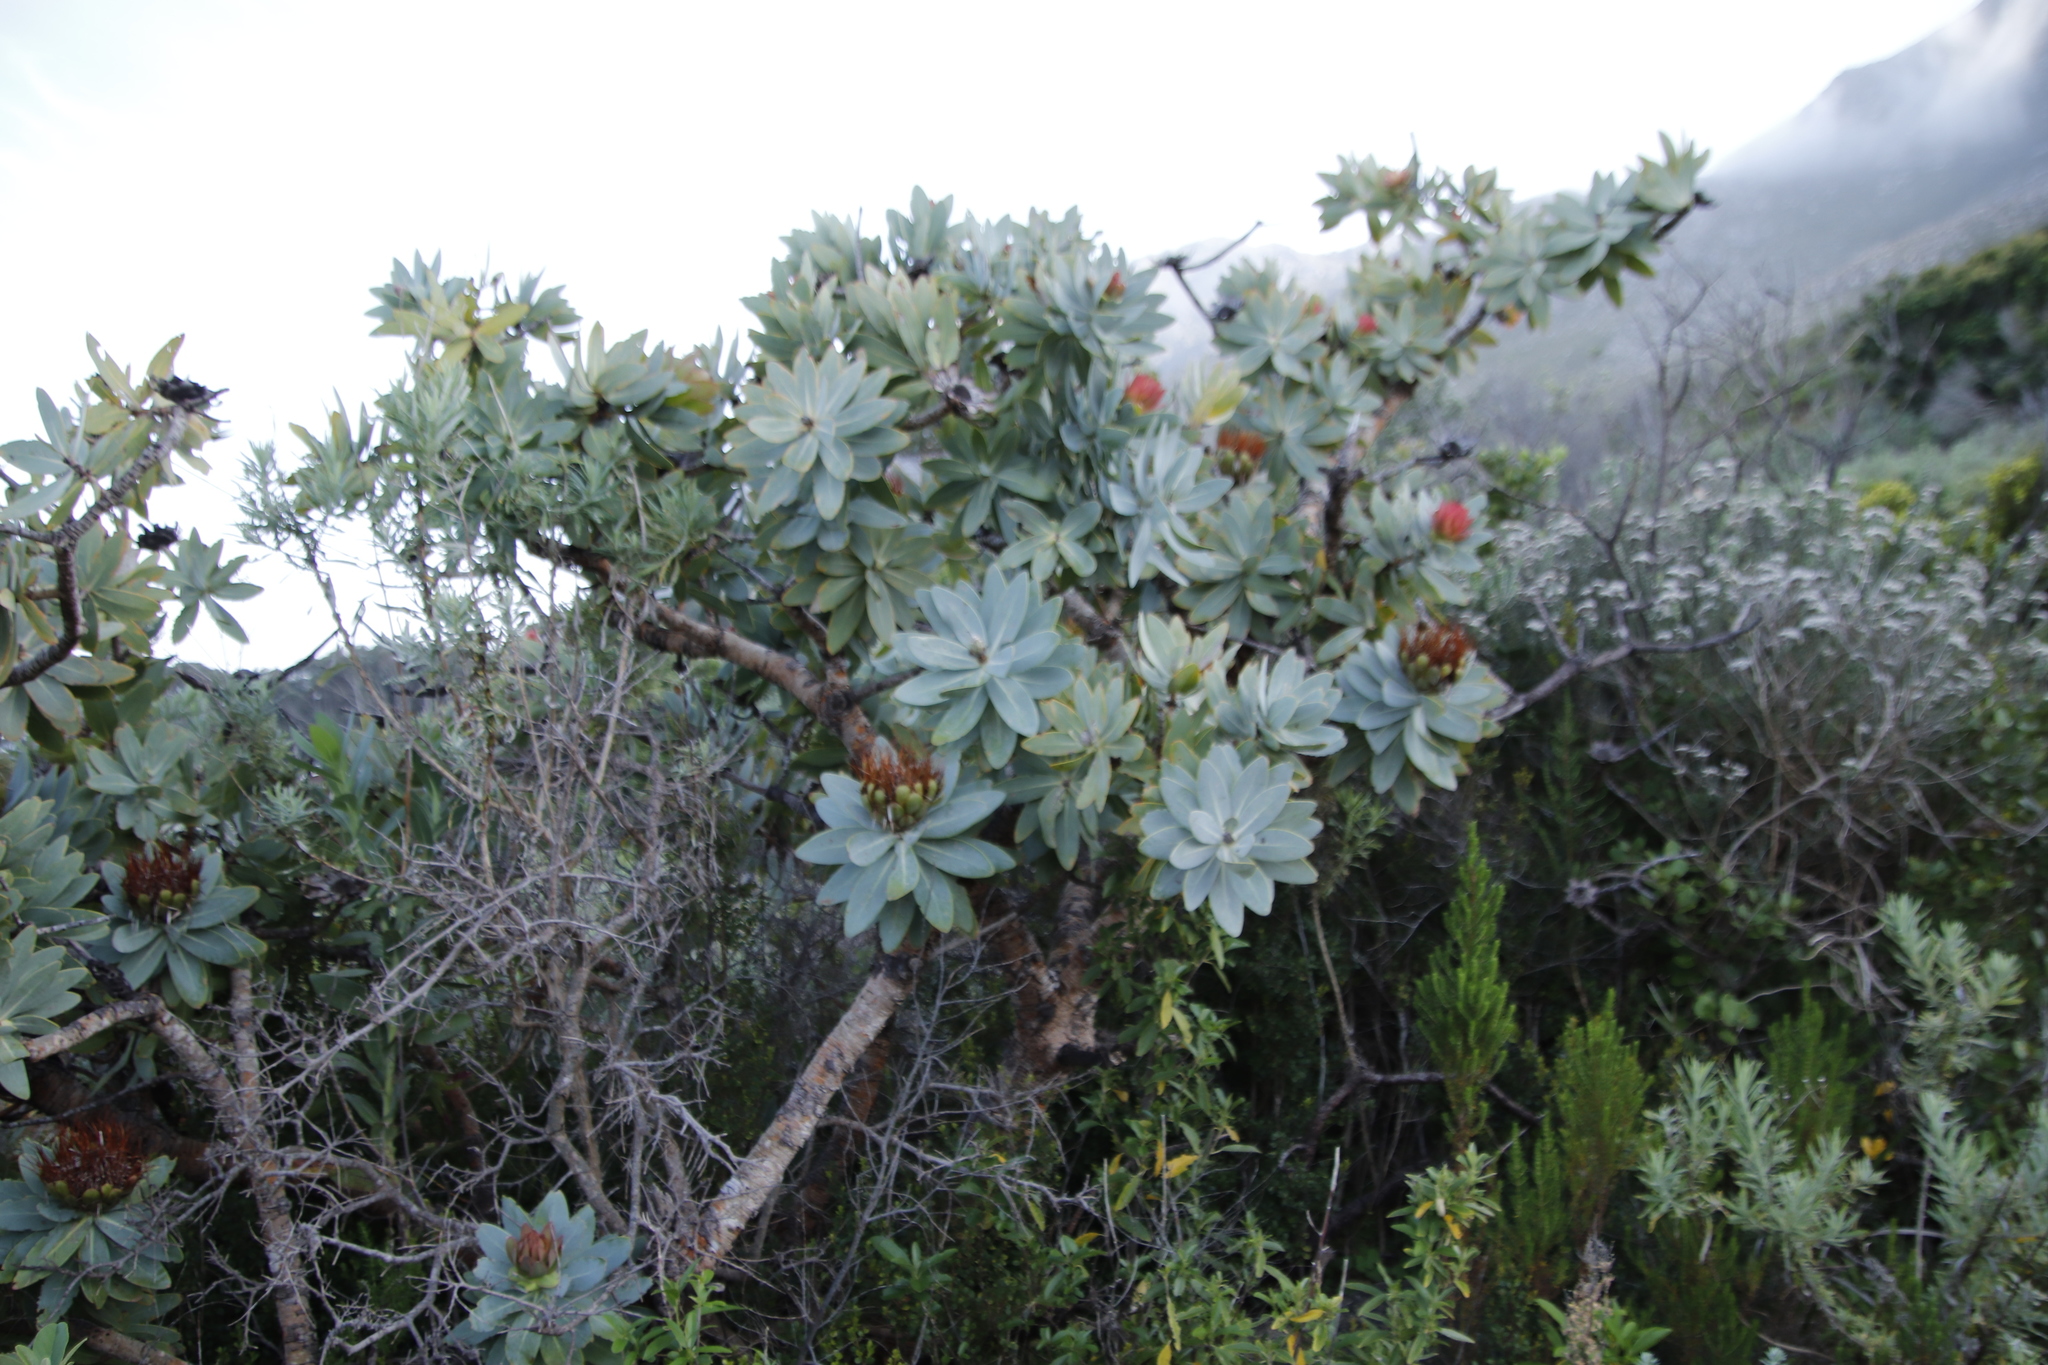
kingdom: Plantae
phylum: Tracheophyta
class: Magnoliopsida
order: Proteales
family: Proteaceae
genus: Protea
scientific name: Protea nitida
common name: Tree protea
